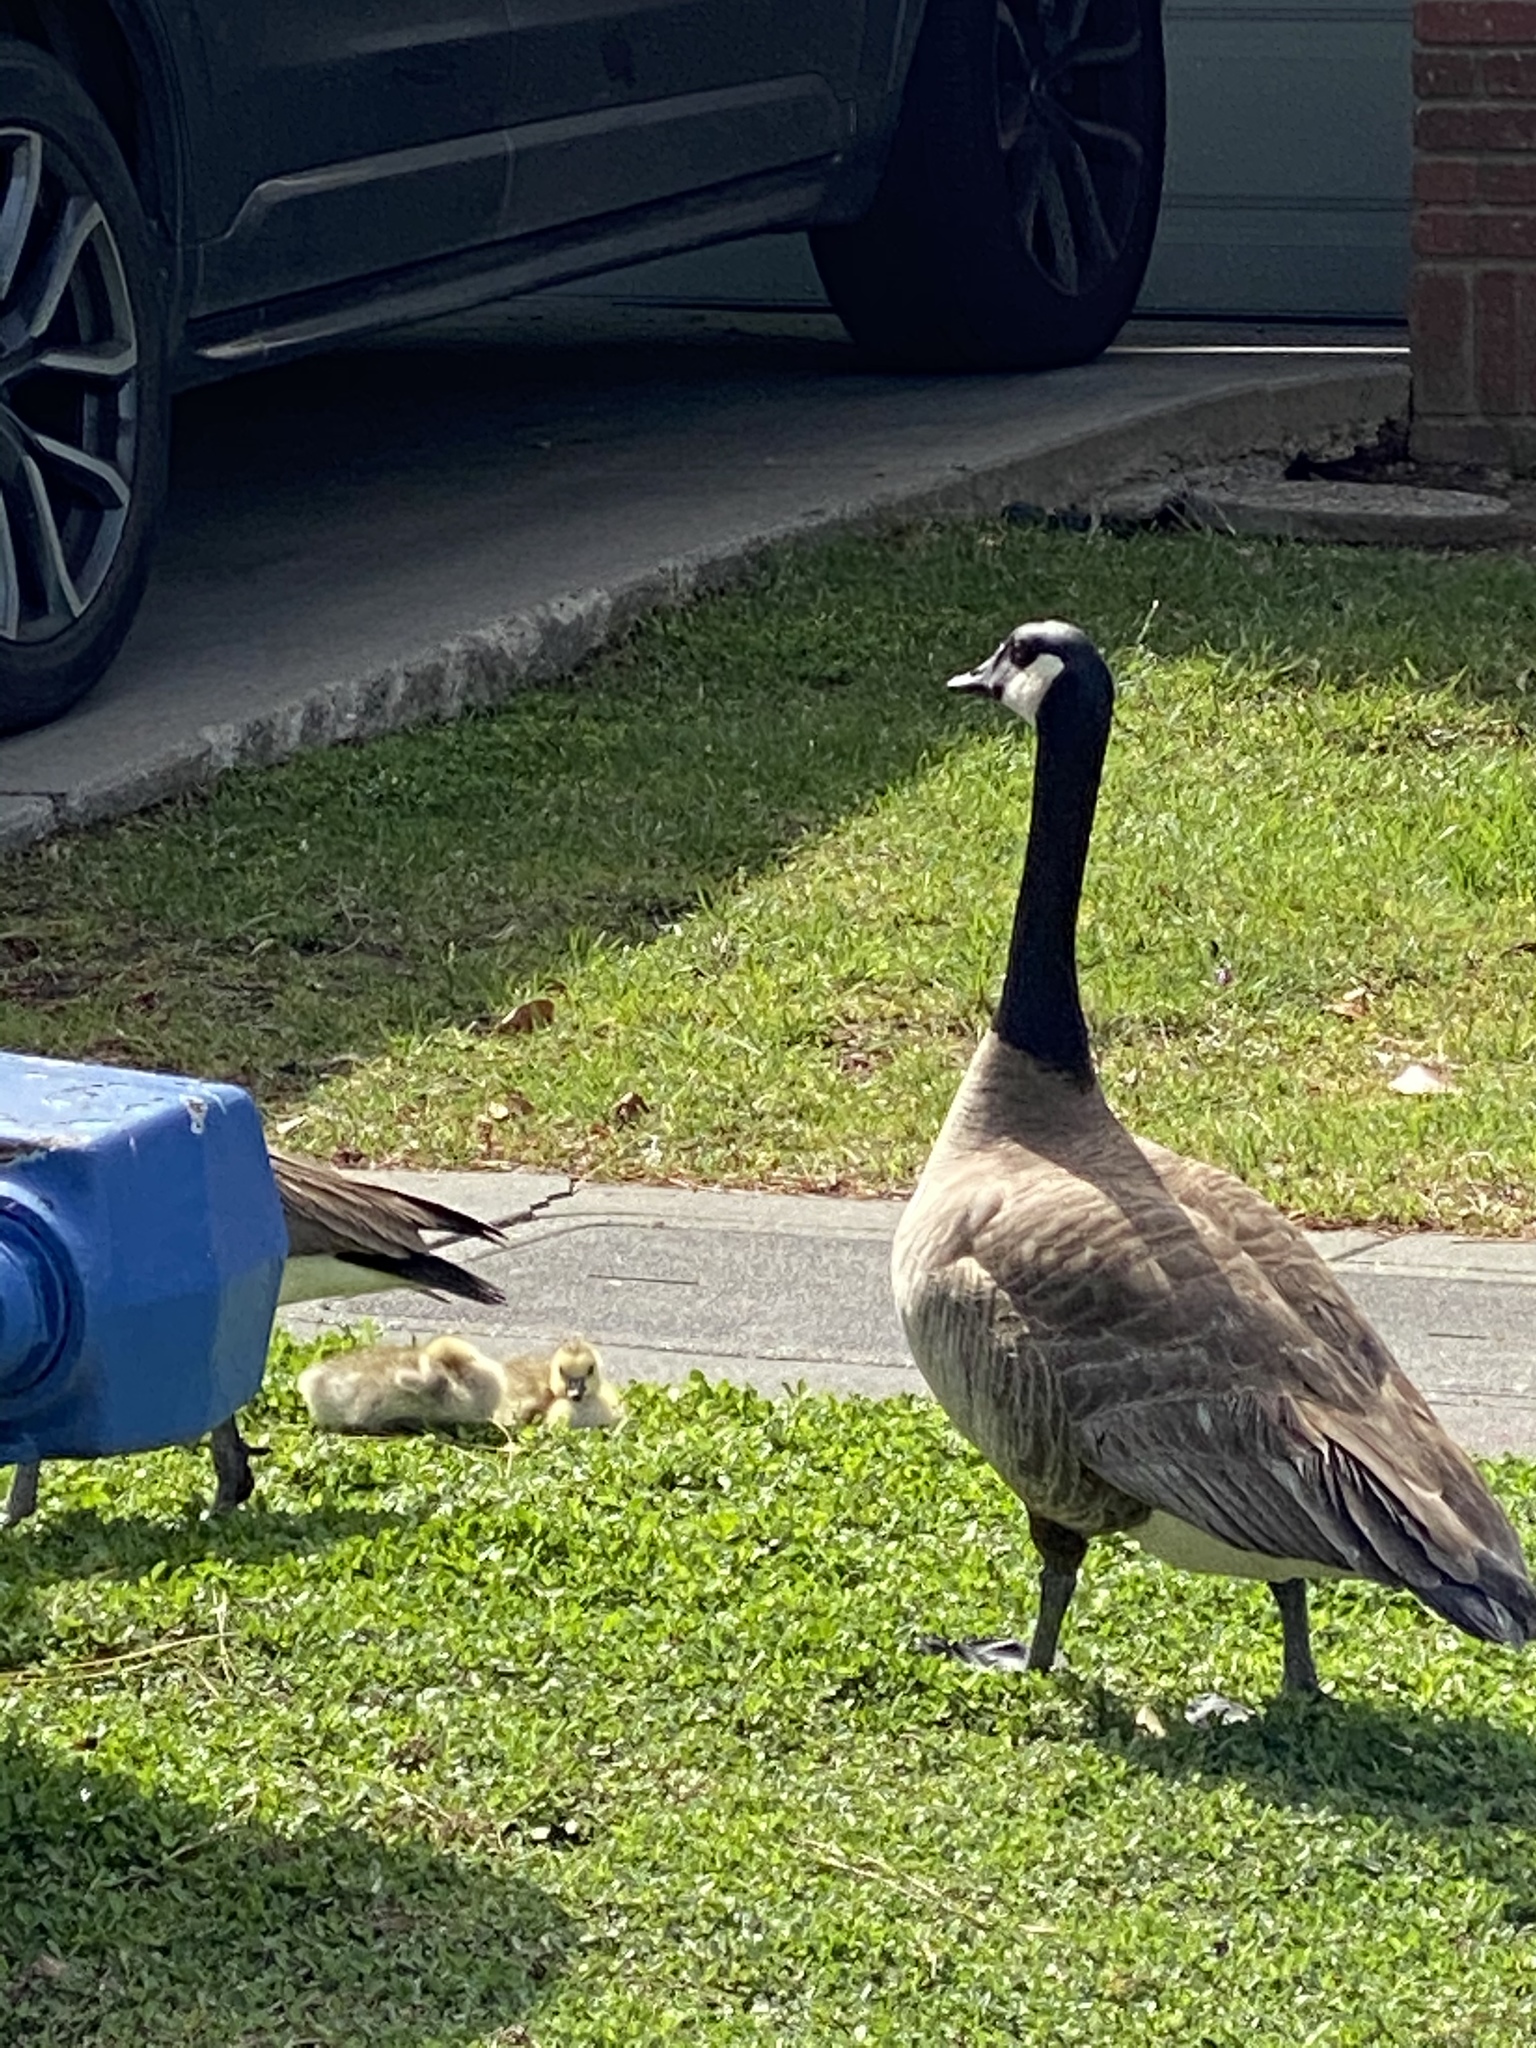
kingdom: Animalia
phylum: Chordata
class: Aves
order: Anseriformes
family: Anatidae
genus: Branta
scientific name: Branta canadensis
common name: Canada goose
